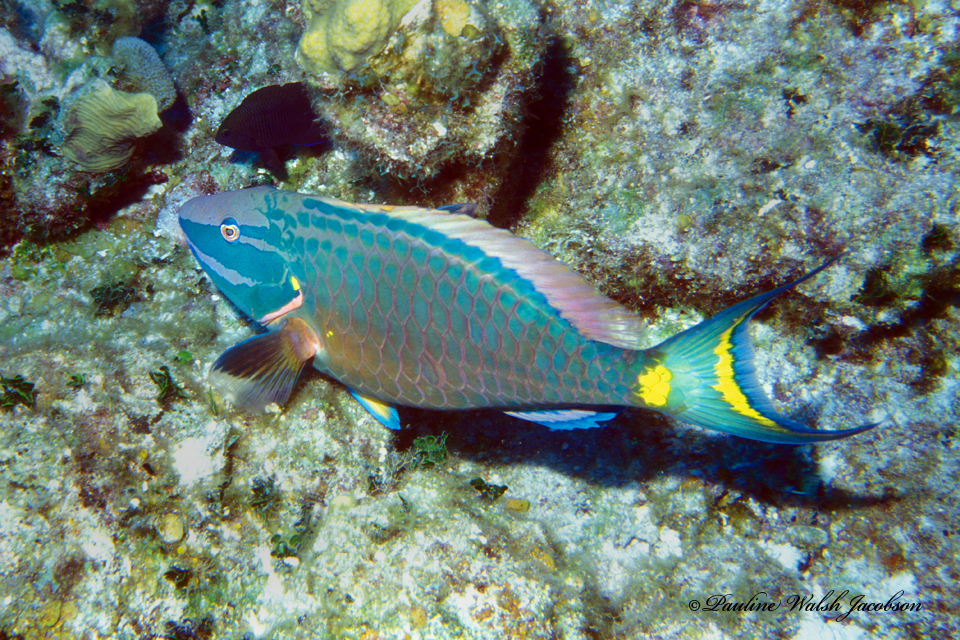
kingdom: Animalia
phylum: Chordata
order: Perciformes
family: Scaridae
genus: Sparisoma
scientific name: Sparisoma viride
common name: Stoplight parrotfish
